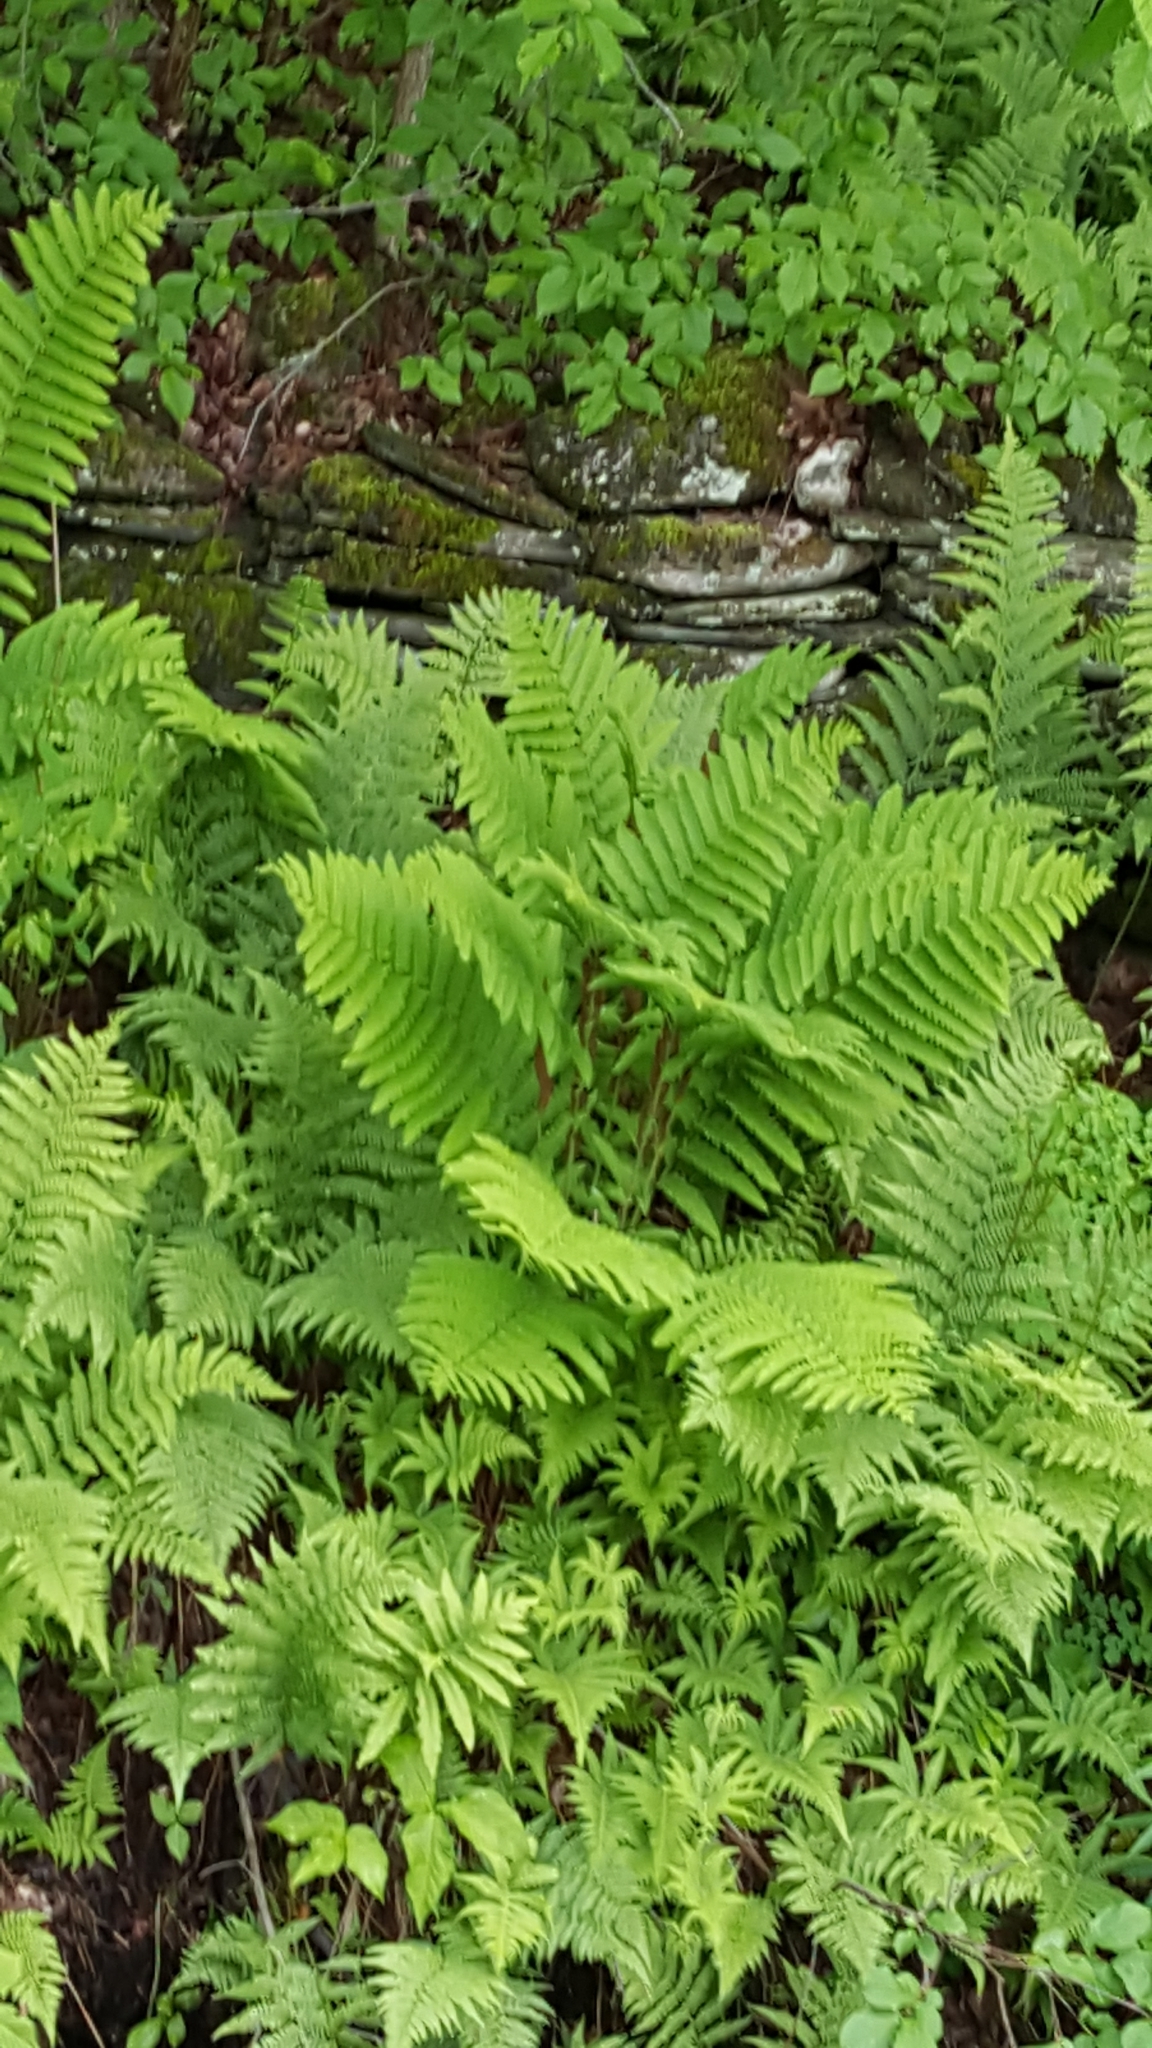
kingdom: Plantae
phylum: Tracheophyta
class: Polypodiopsida
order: Osmundales
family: Osmundaceae
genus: Claytosmunda
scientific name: Claytosmunda claytoniana
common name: Clayton's fern
